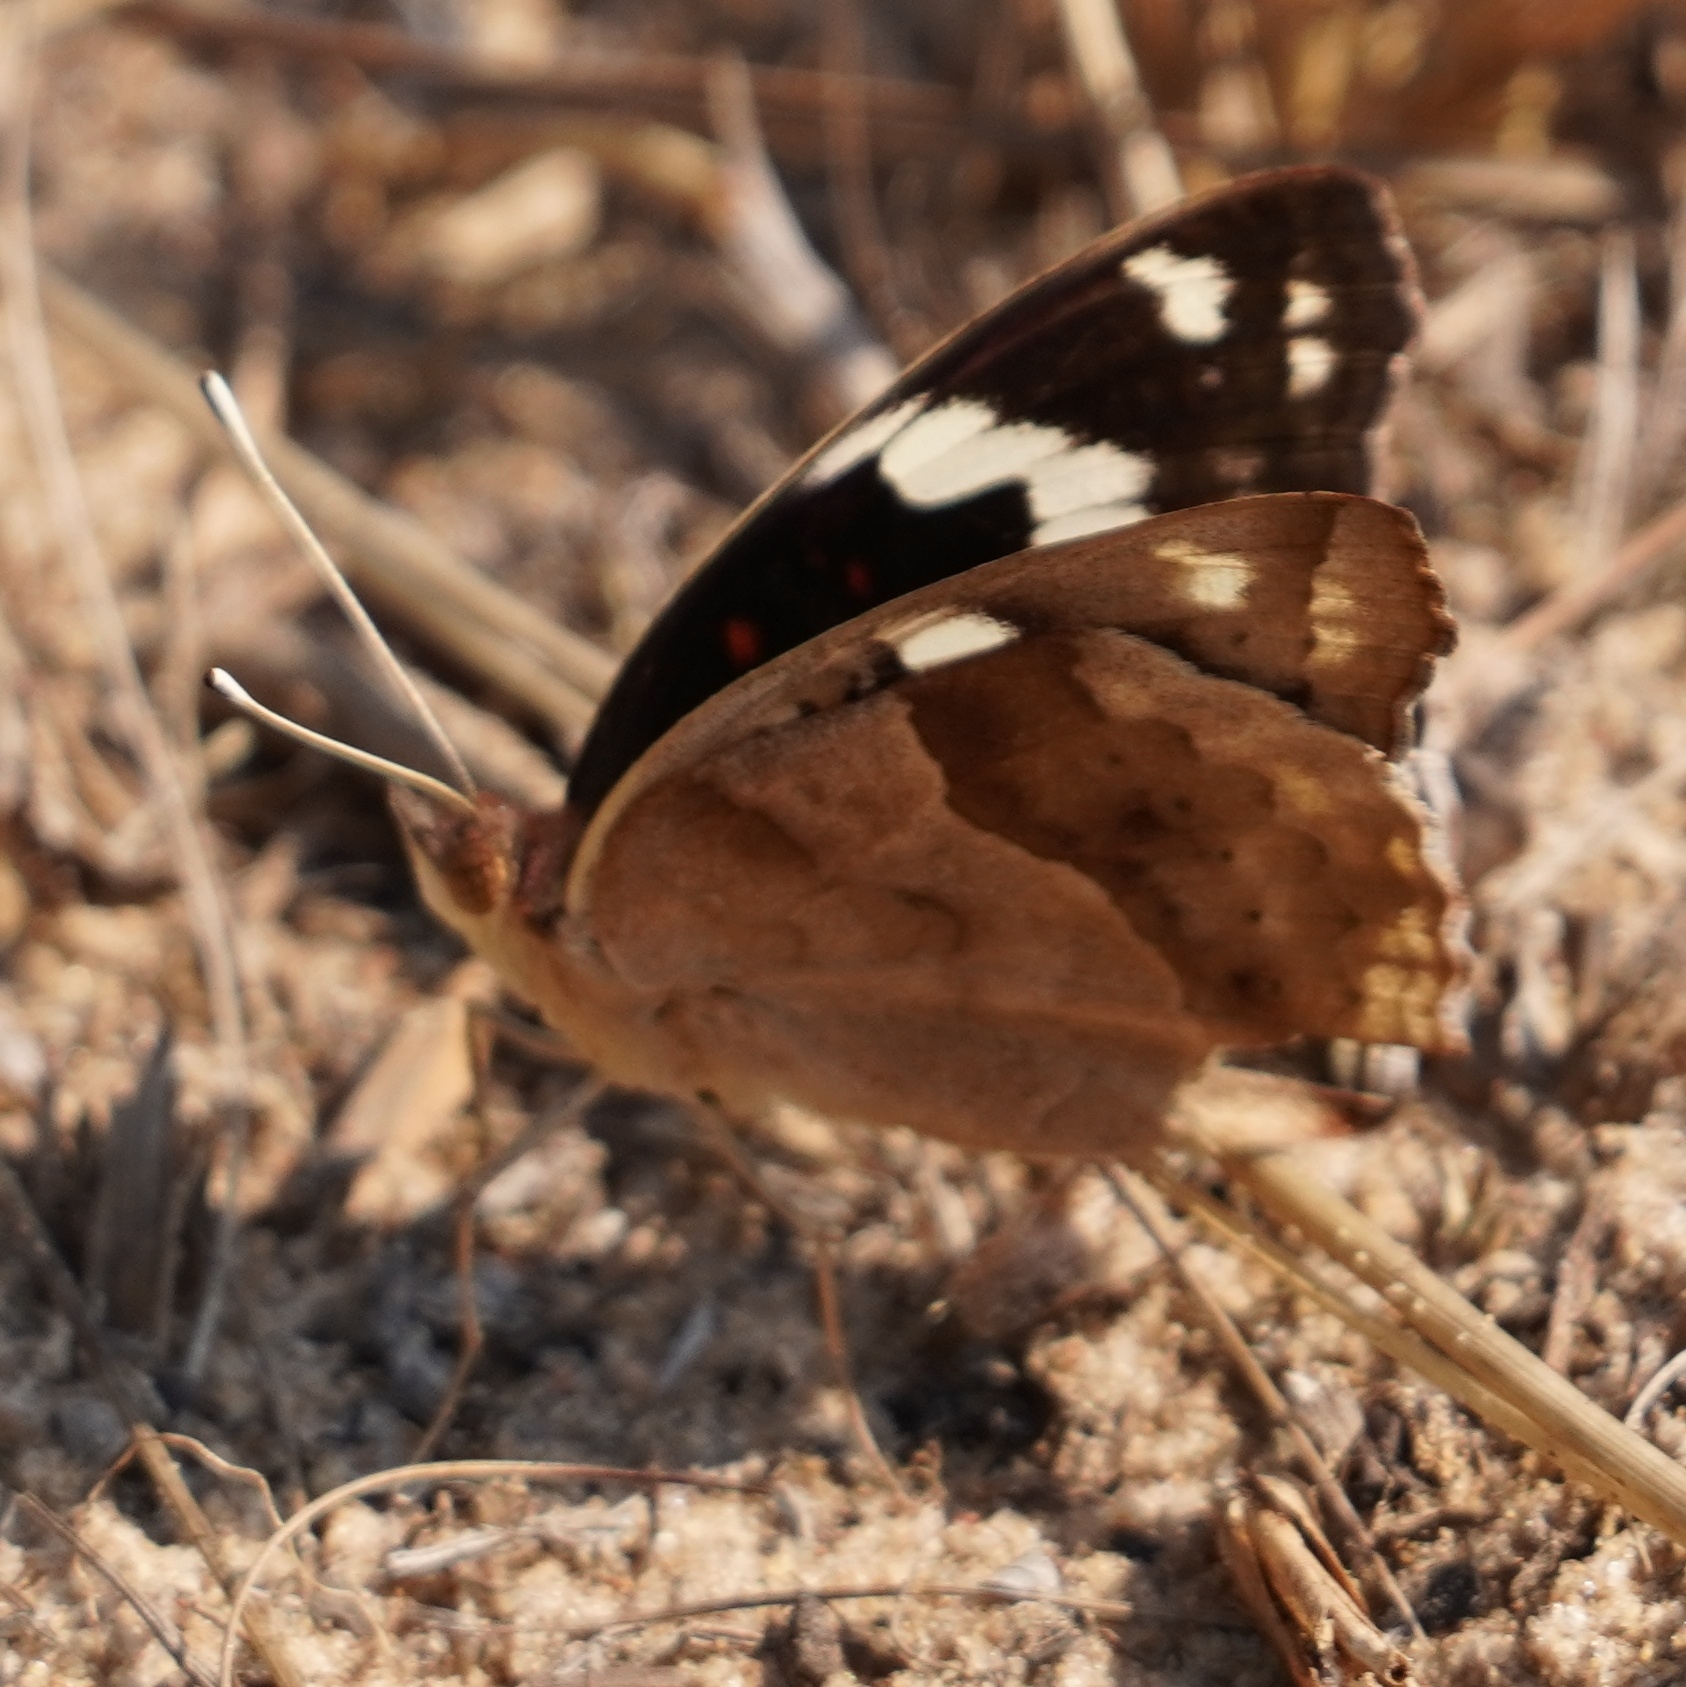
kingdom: Animalia
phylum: Arthropoda
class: Insecta
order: Lepidoptera
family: Nymphalidae
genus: Junonia
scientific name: Junonia oenone
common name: Dark blue pansy
